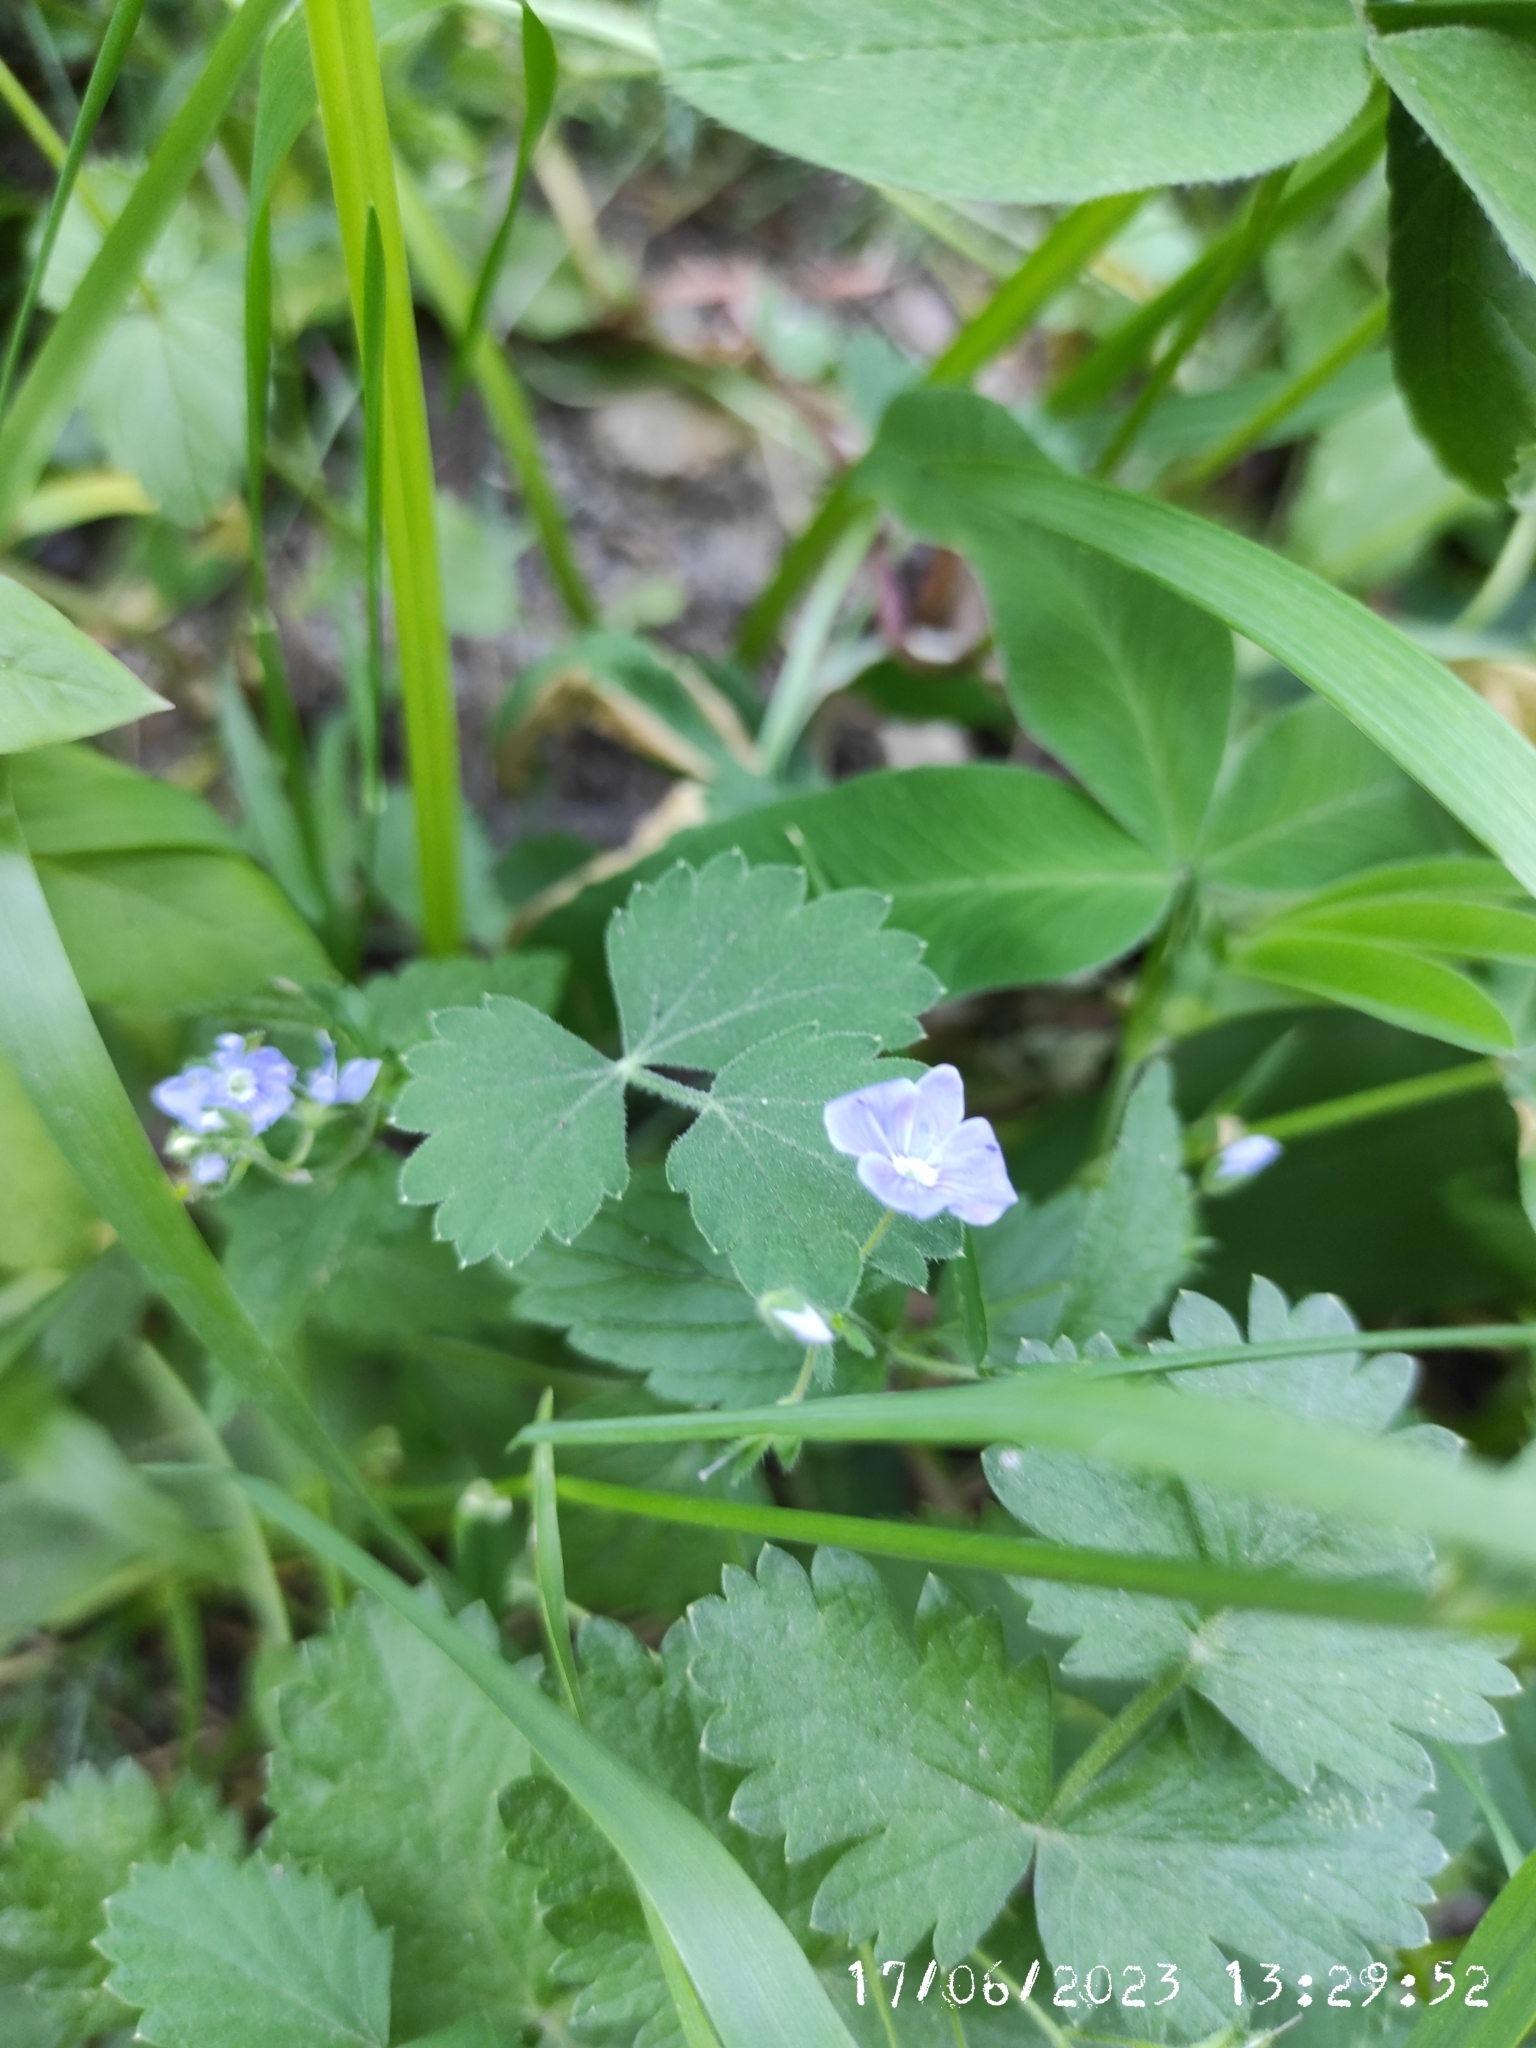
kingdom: Plantae
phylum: Tracheophyta
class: Magnoliopsida
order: Lamiales
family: Plantaginaceae
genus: Veronica
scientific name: Veronica chamaedrys
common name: Germander speedwell
